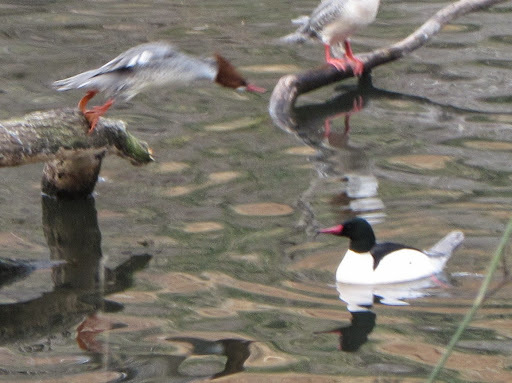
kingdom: Animalia
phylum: Chordata
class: Aves
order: Anseriformes
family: Anatidae
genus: Mergus
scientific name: Mergus merganser
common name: Common merganser
